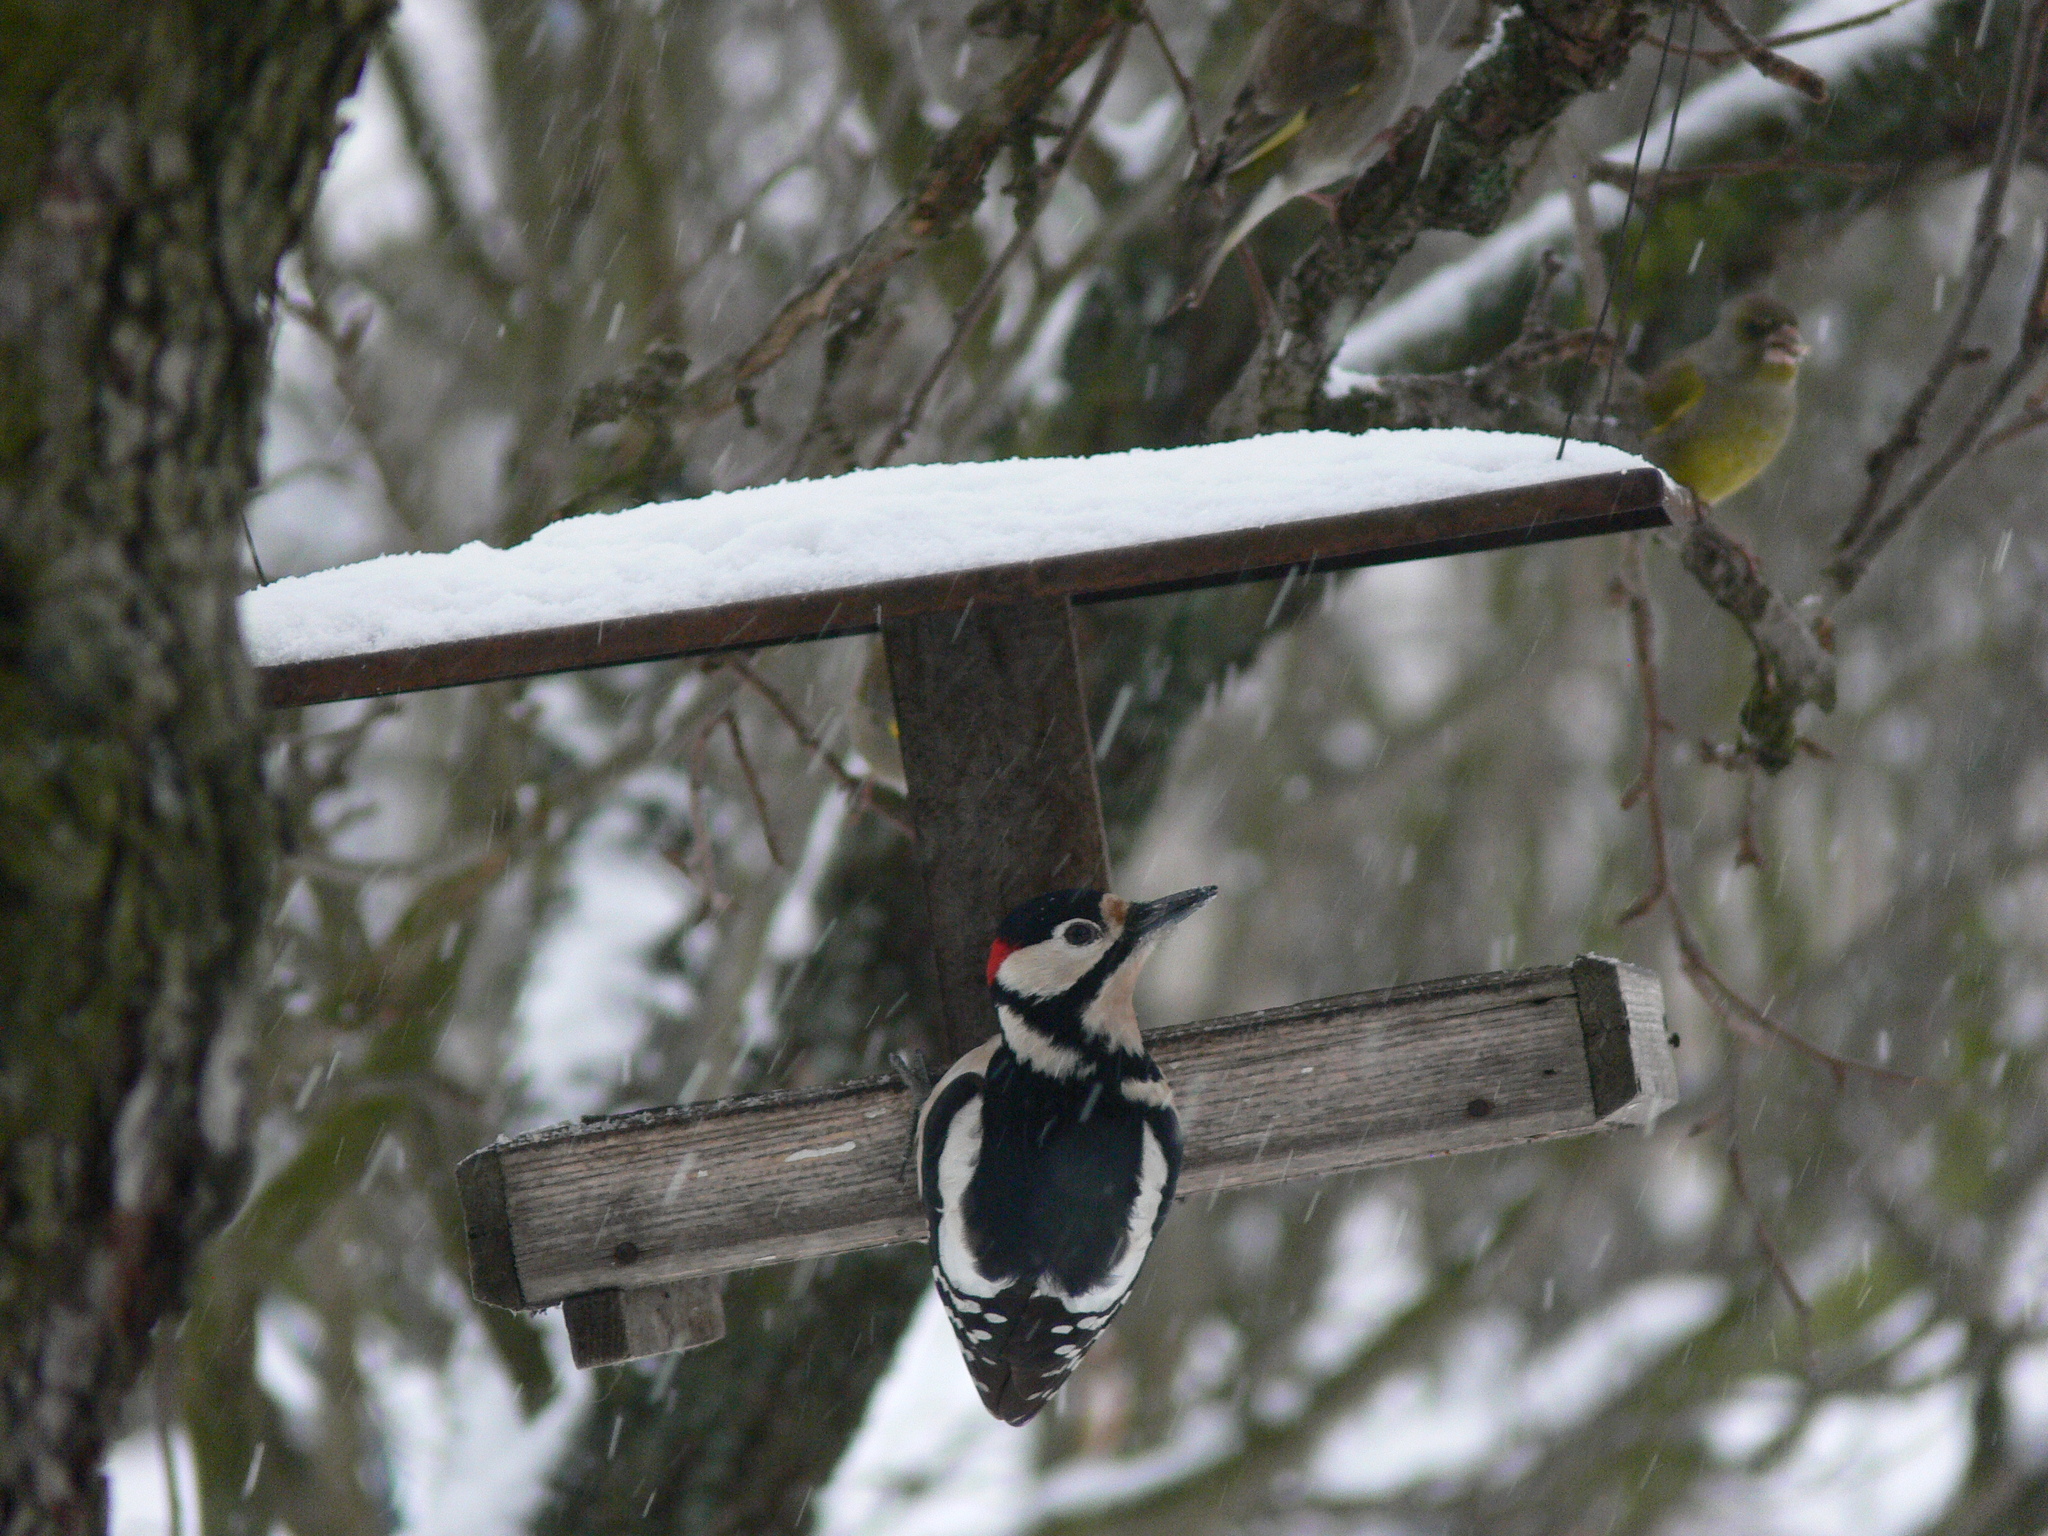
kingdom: Animalia
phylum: Chordata
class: Aves
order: Piciformes
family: Picidae
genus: Dendrocopos
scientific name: Dendrocopos major
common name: Great spotted woodpecker
